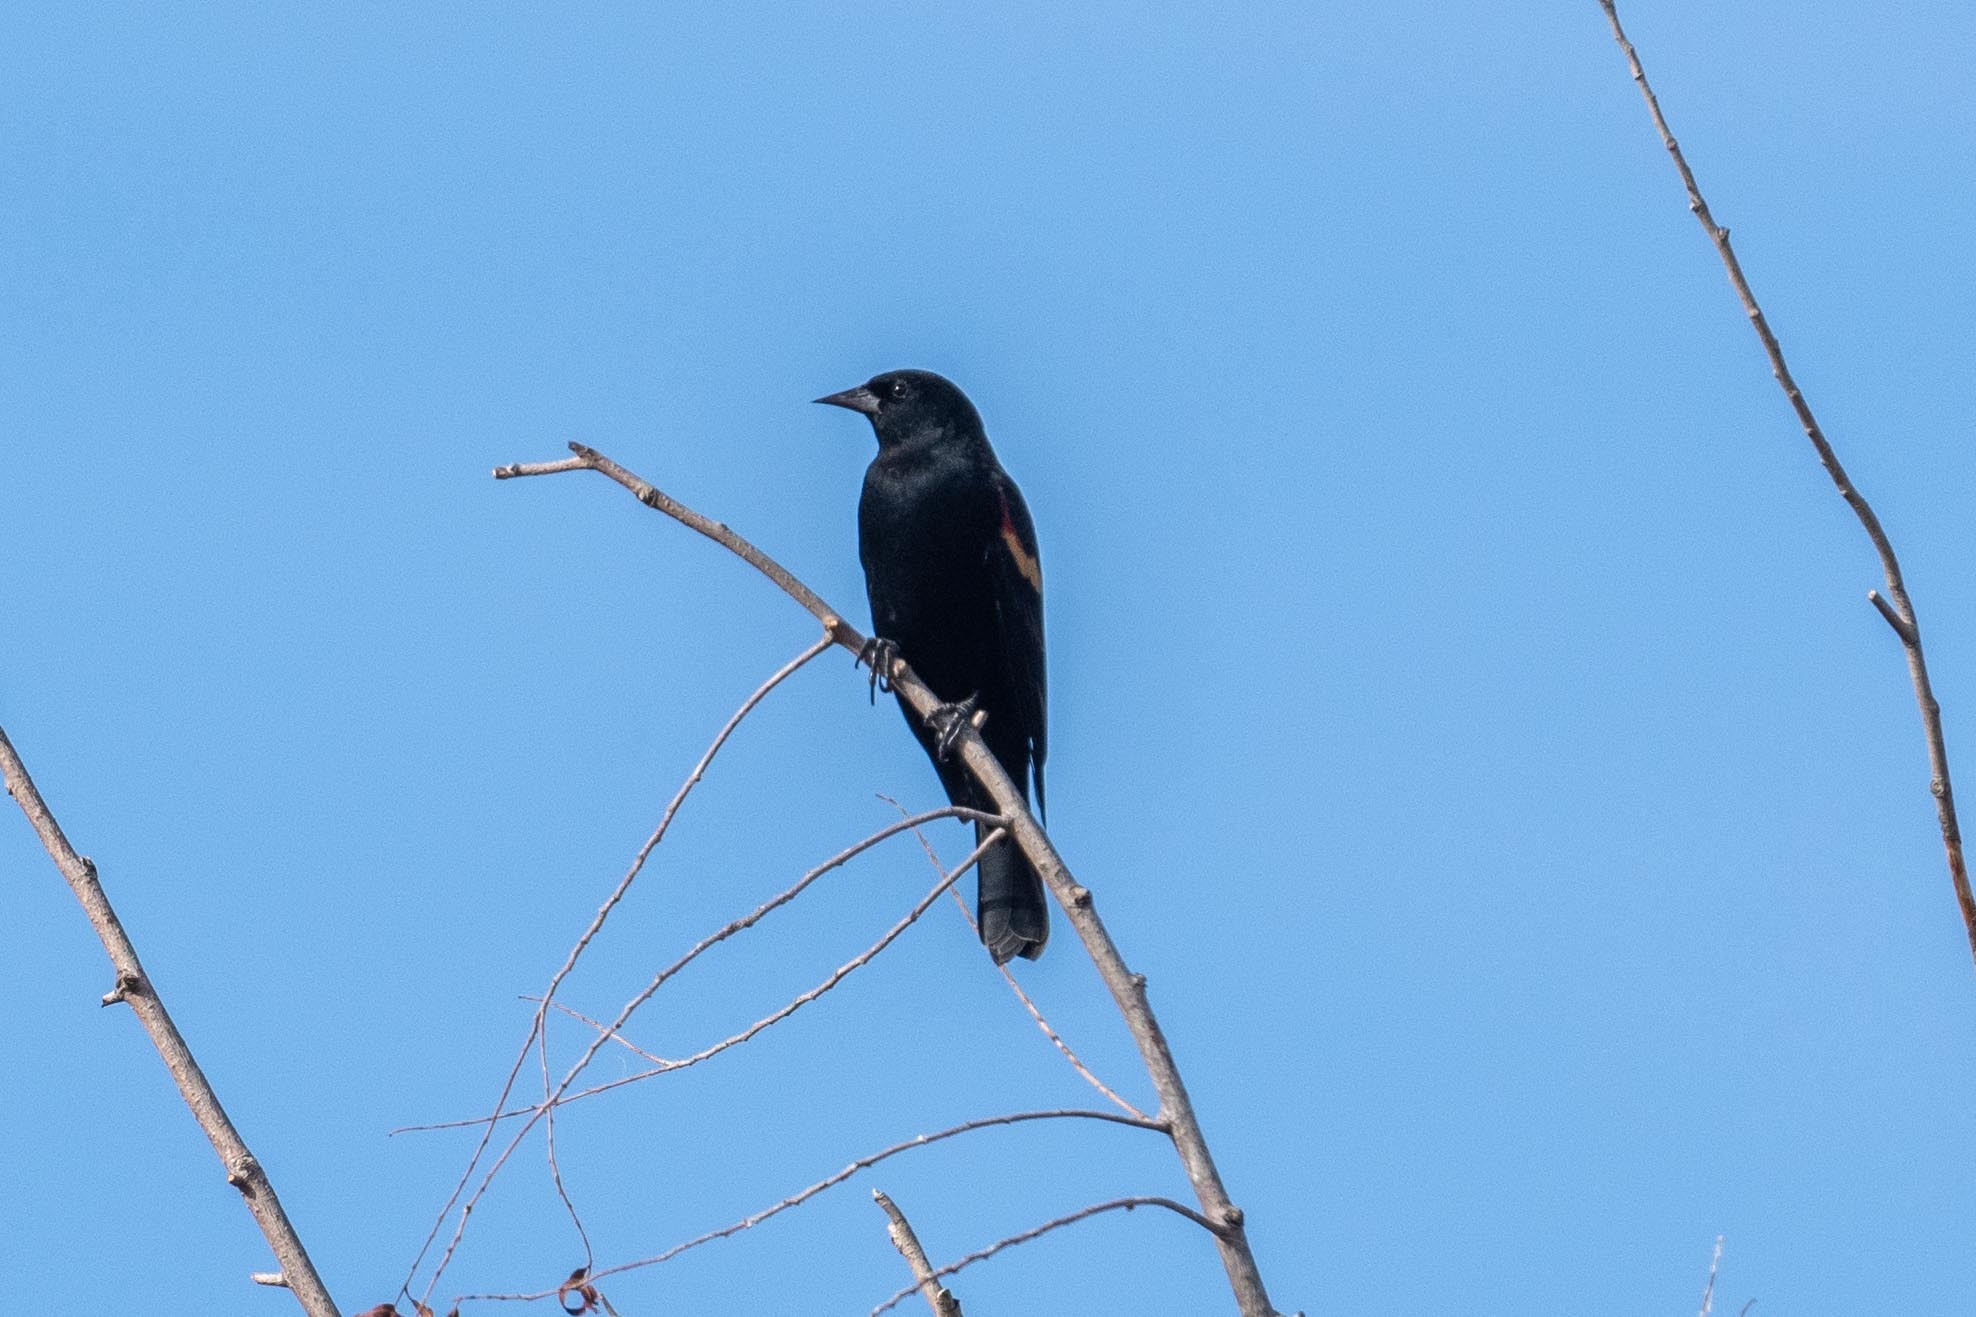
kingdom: Animalia
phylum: Chordata
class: Aves
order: Passeriformes
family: Icteridae
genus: Agelaius
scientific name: Agelaius phoeniceus
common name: Red-winged blackbird
